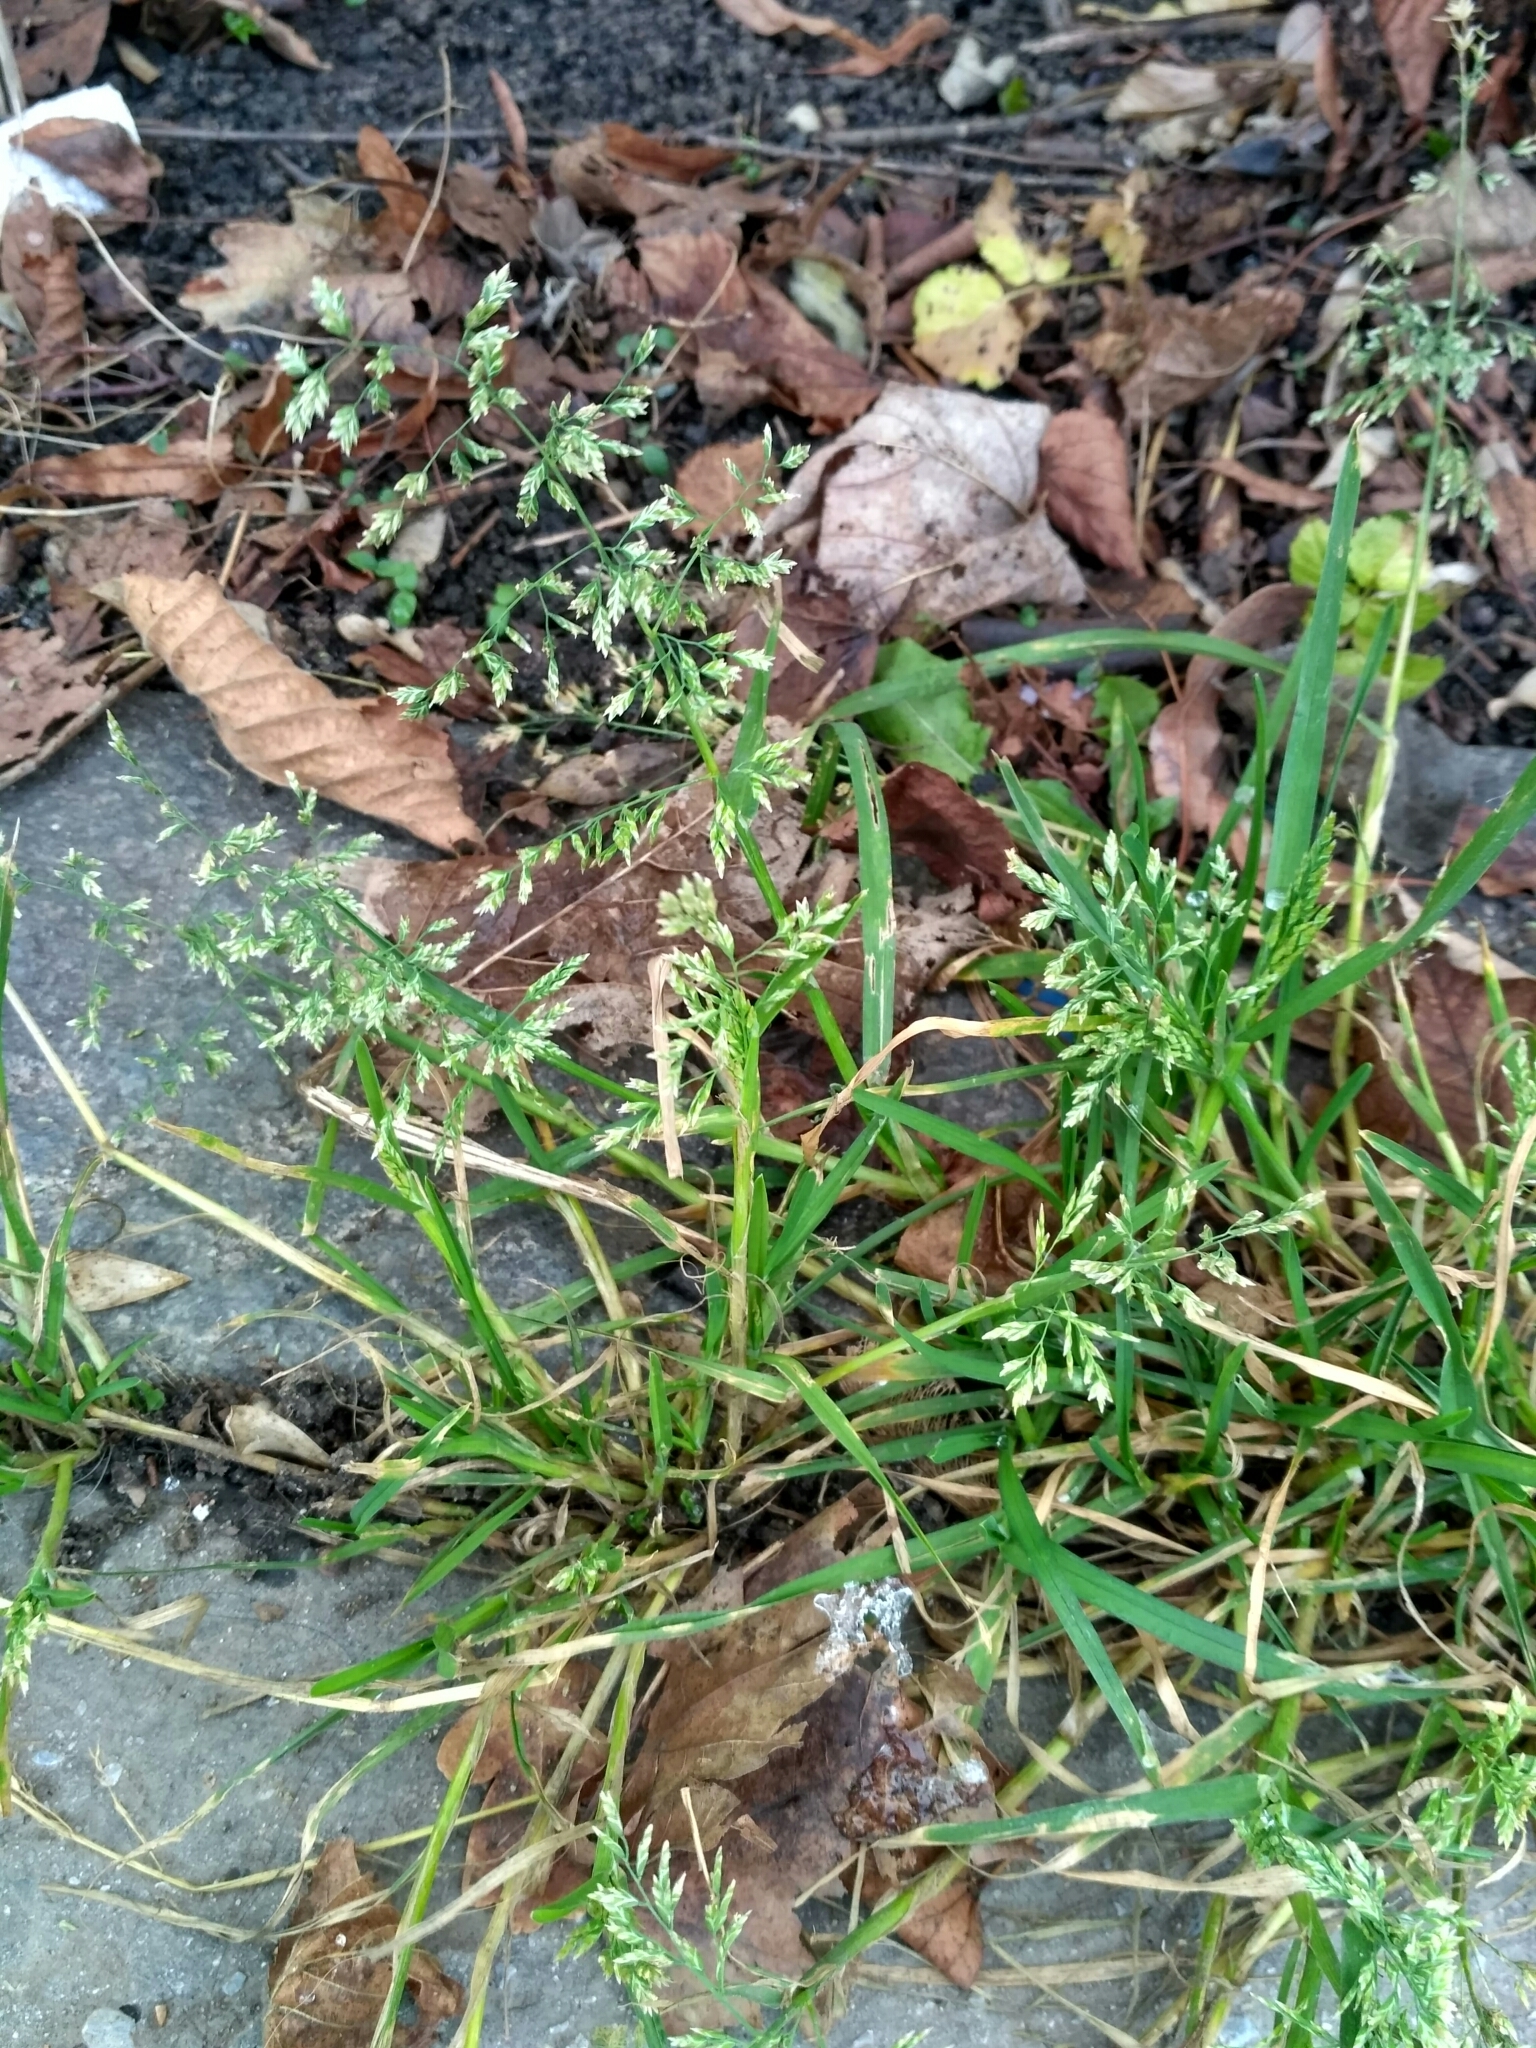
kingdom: Plantae
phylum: Tracheophyta
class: Liliopsida
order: Poales
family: Poaceae
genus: Poa
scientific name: Poa pratensis
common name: Kentucky bluegrass
